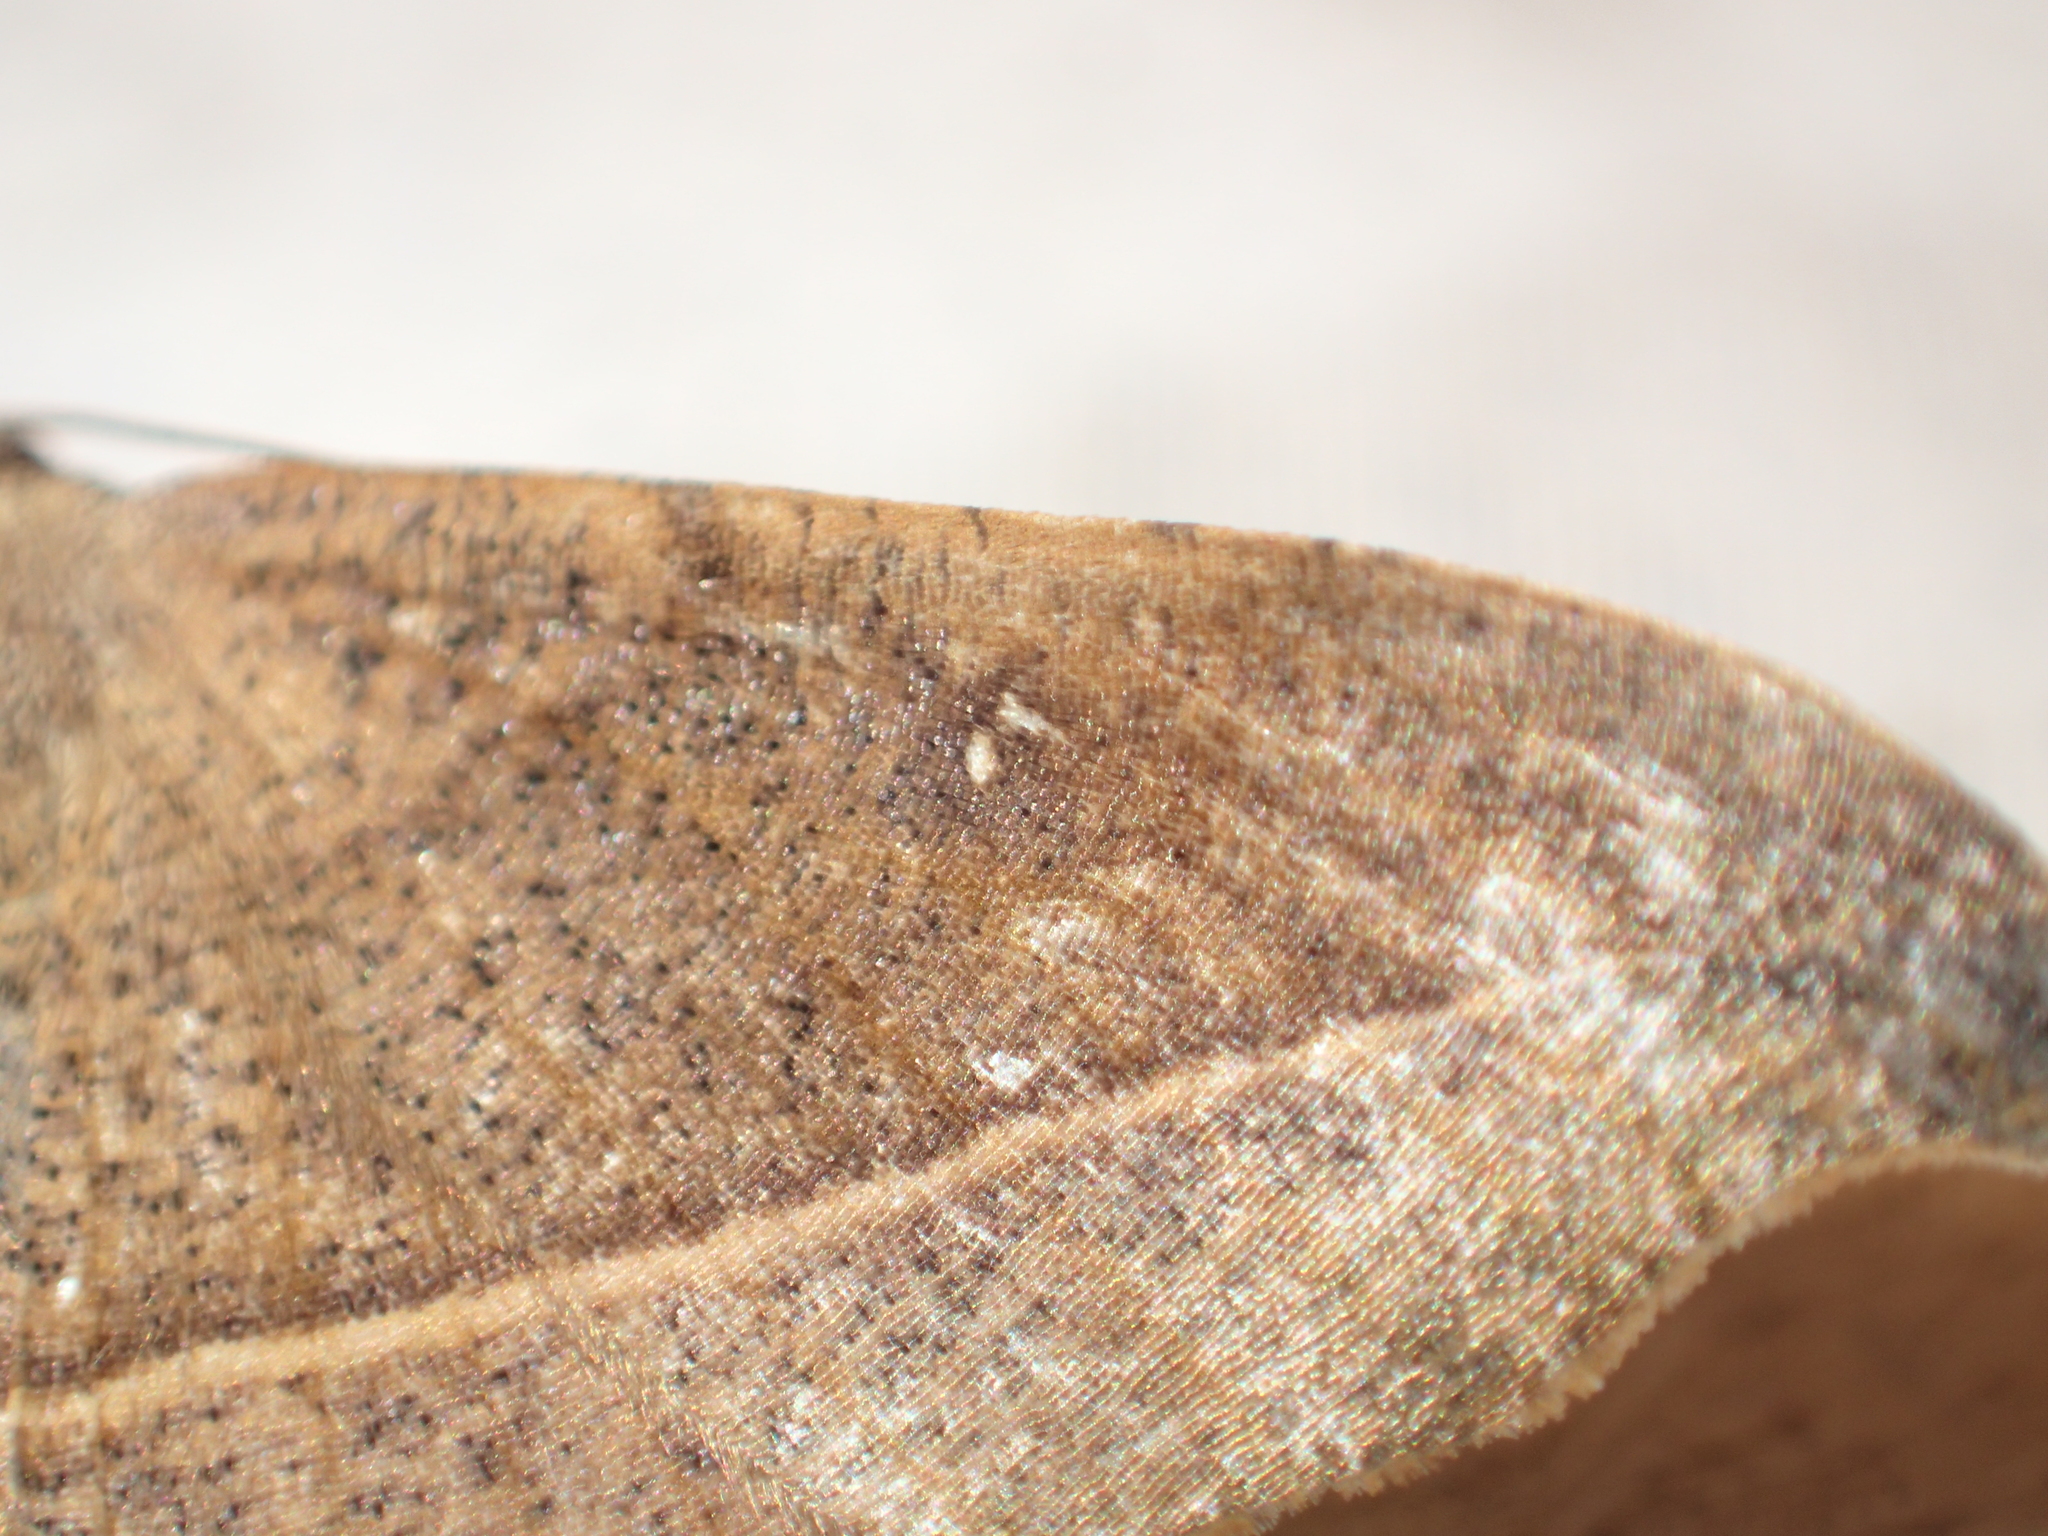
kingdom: Animalia
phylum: Arthropoda
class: Insecta
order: Lepidoptera
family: Geometridae
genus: Sarisa
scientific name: Sarisa muriferata
